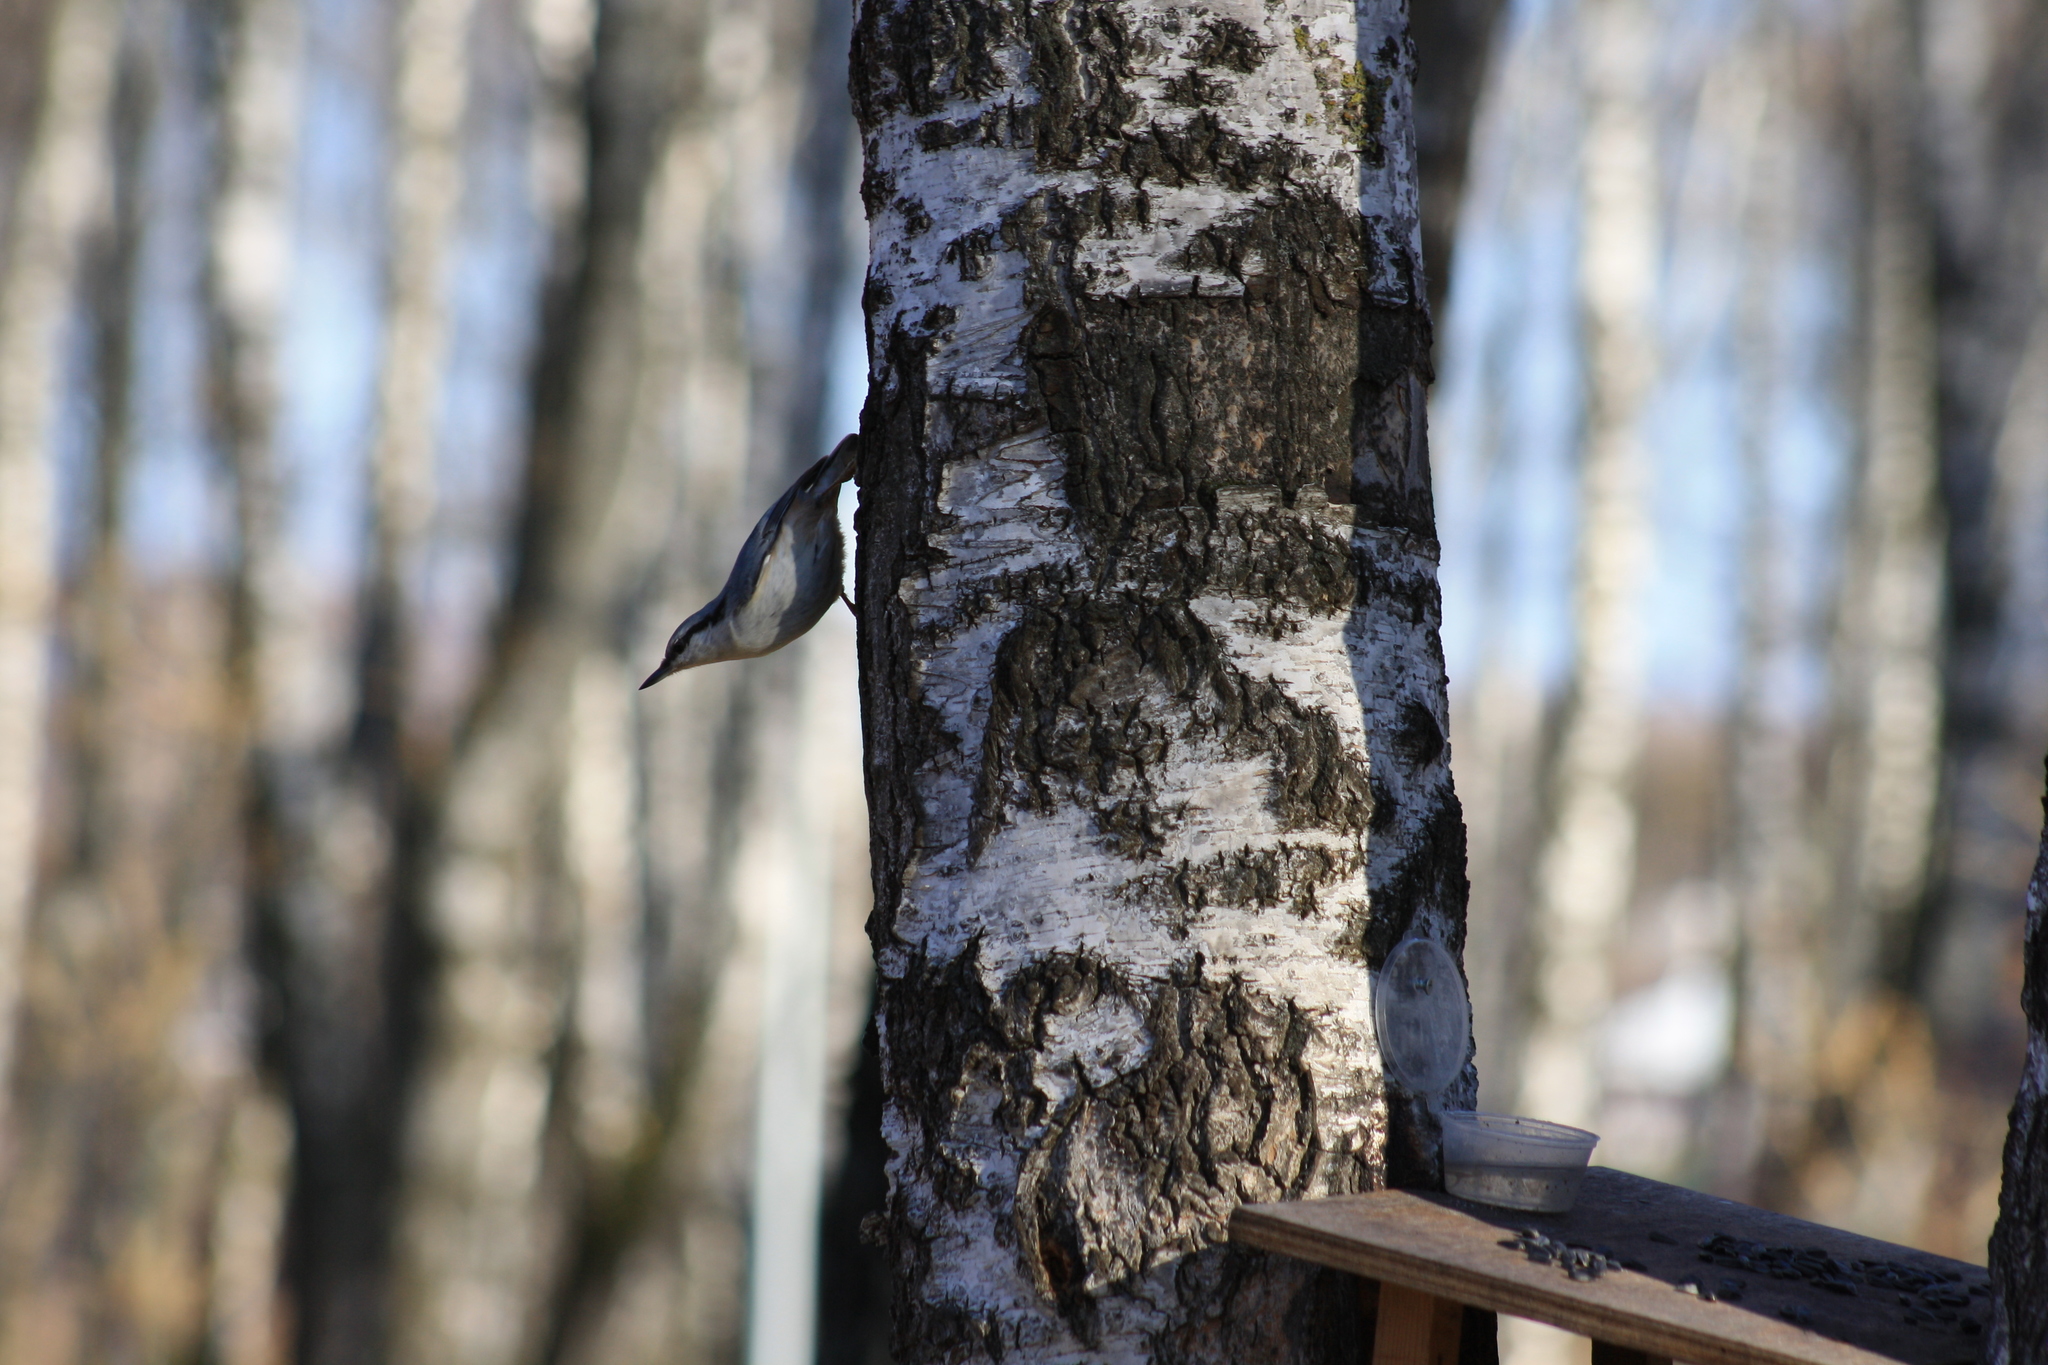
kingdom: Animalia
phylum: Chordata
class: Aves
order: Passeriformes
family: Sittidae
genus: Sitta
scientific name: Sitta europaea
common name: Eurasian nuthatch
